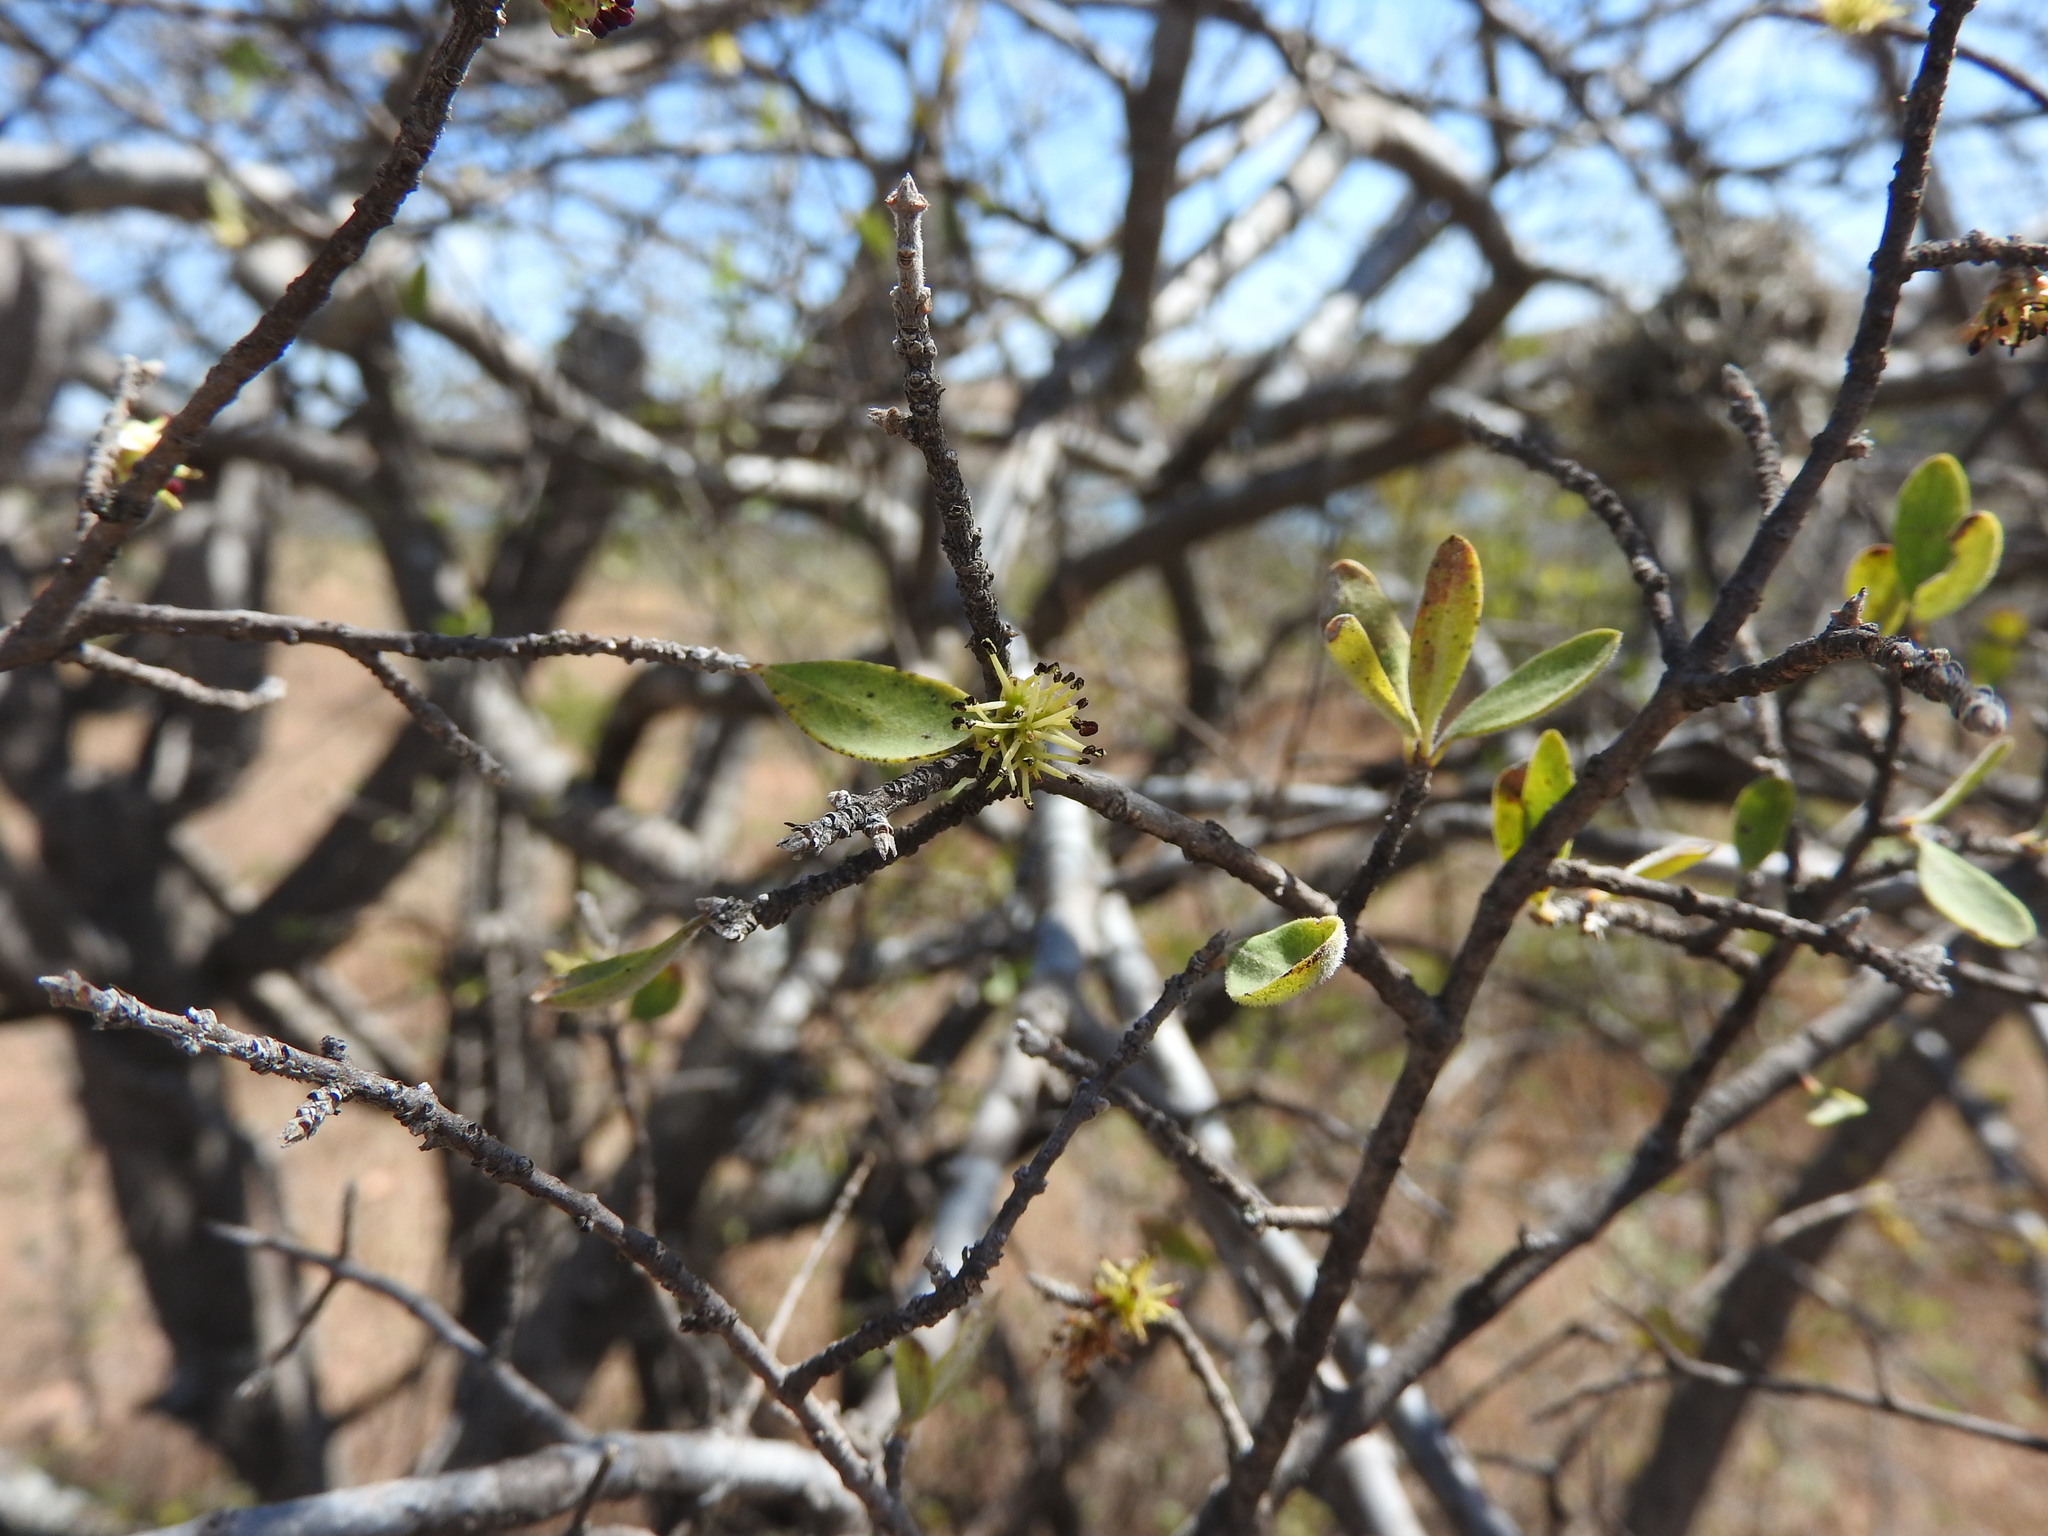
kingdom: Plantae
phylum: Tracheophyta
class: Magnoliopsida
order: Lamiales
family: Oleaceae
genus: Forestiera
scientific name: Forestiera phillyreoides
